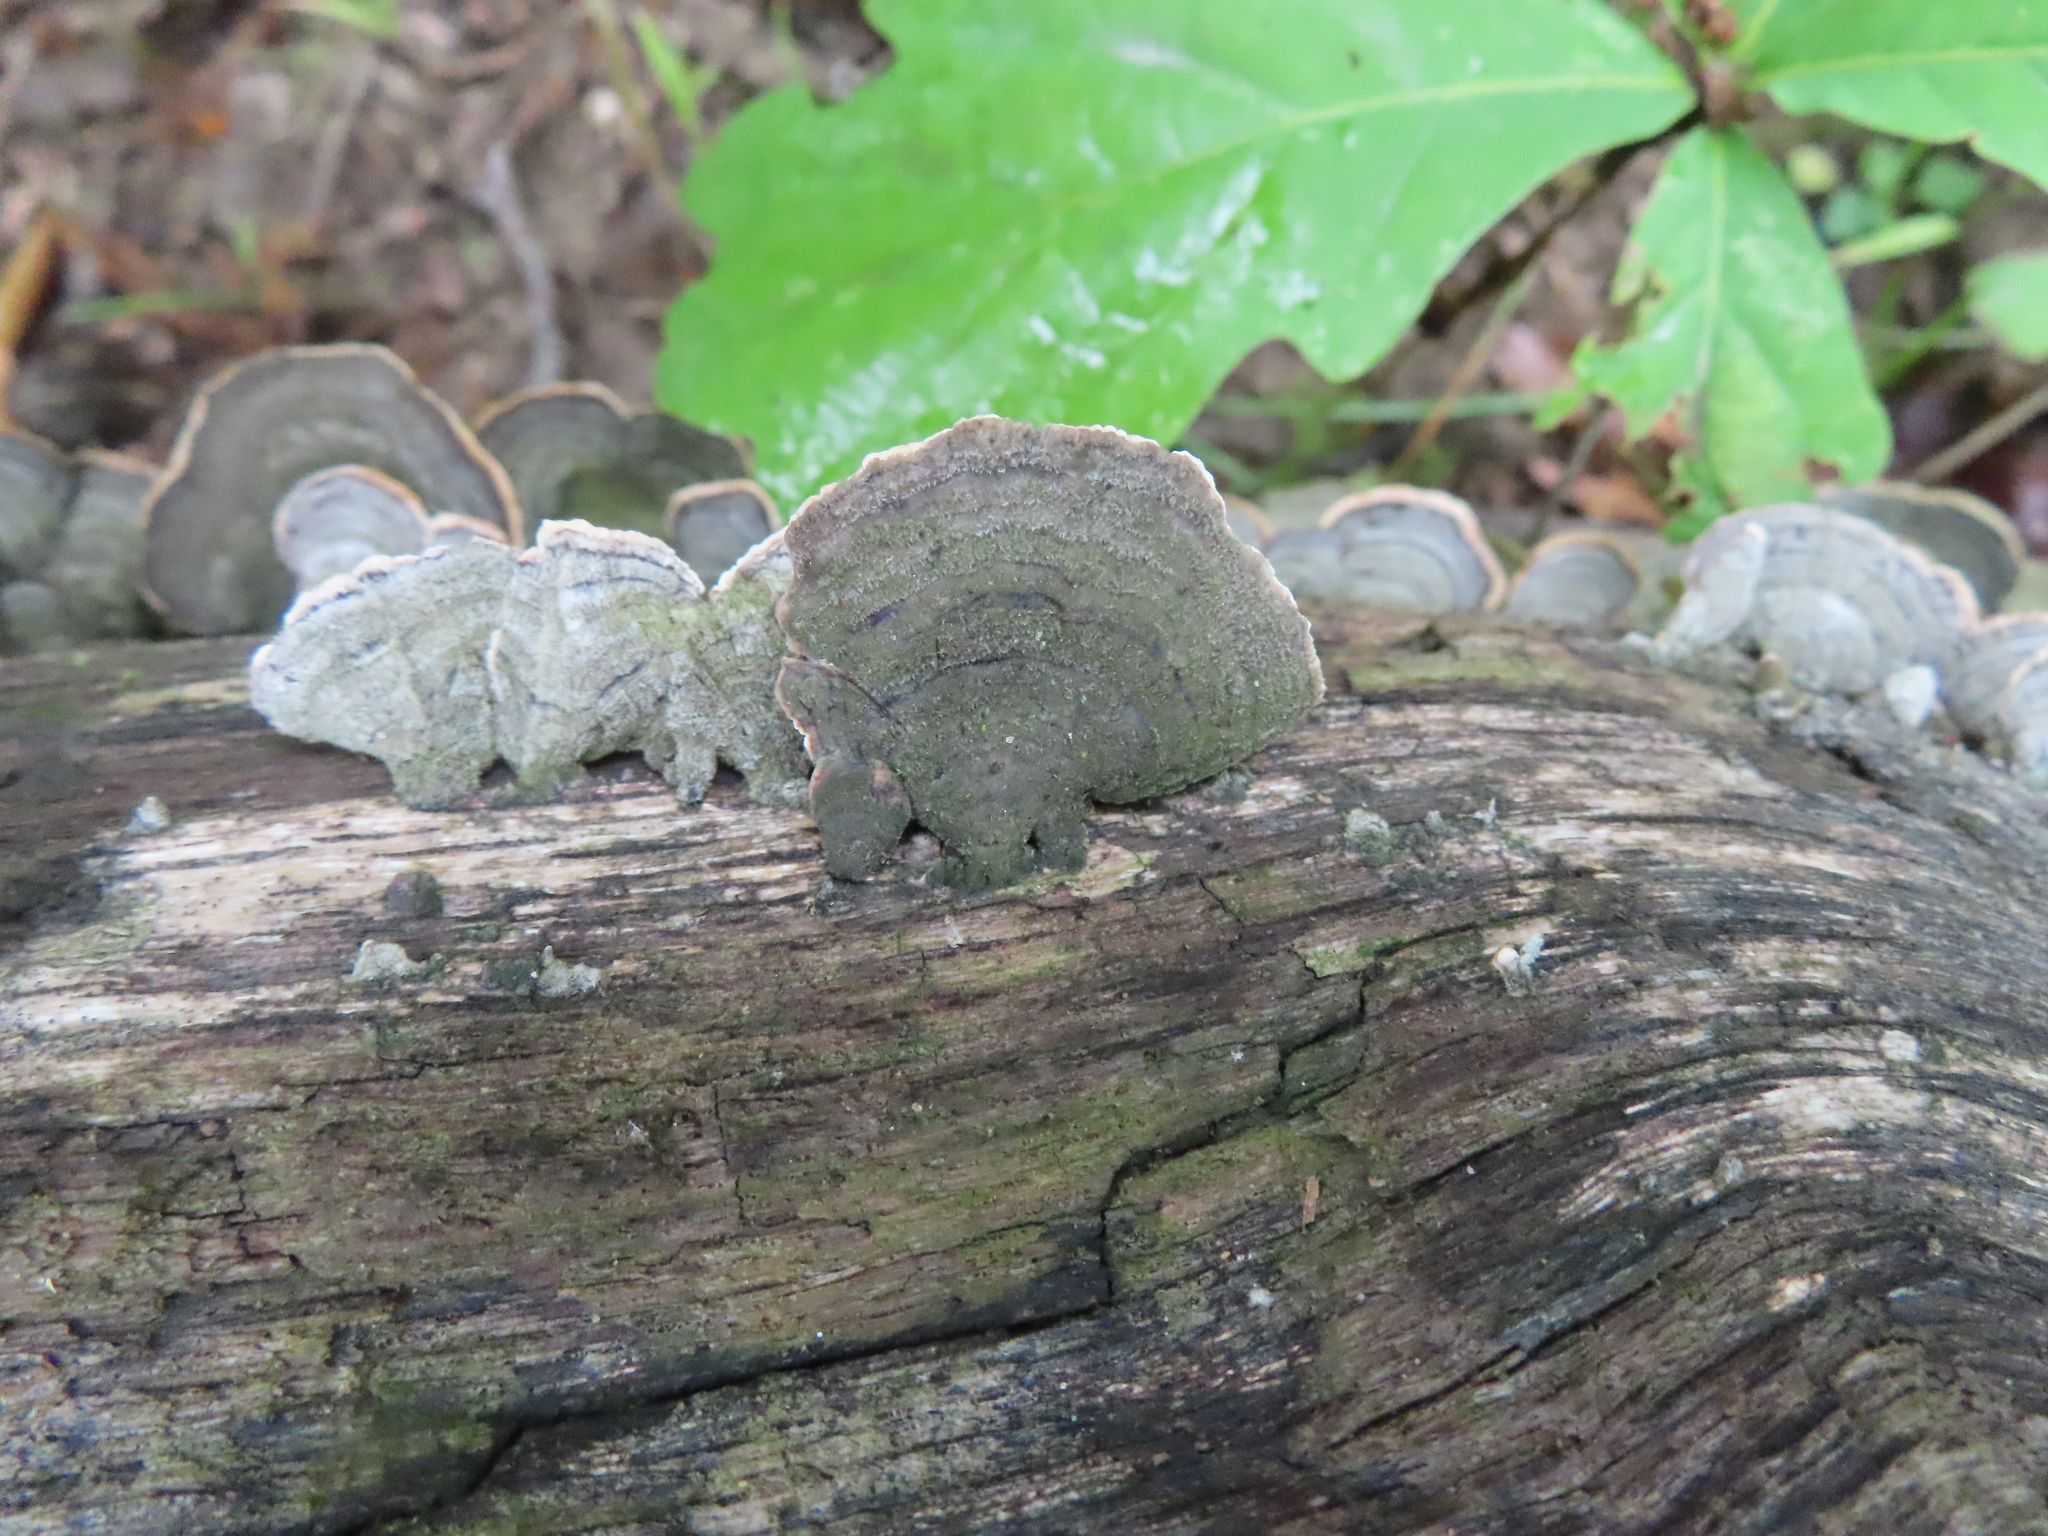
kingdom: Fungi
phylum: Basidiomycota
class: Agaricomycetes
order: Russulales
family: Stereaceae
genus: Stereum
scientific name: Stereum ostrea
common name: False turkeytail
